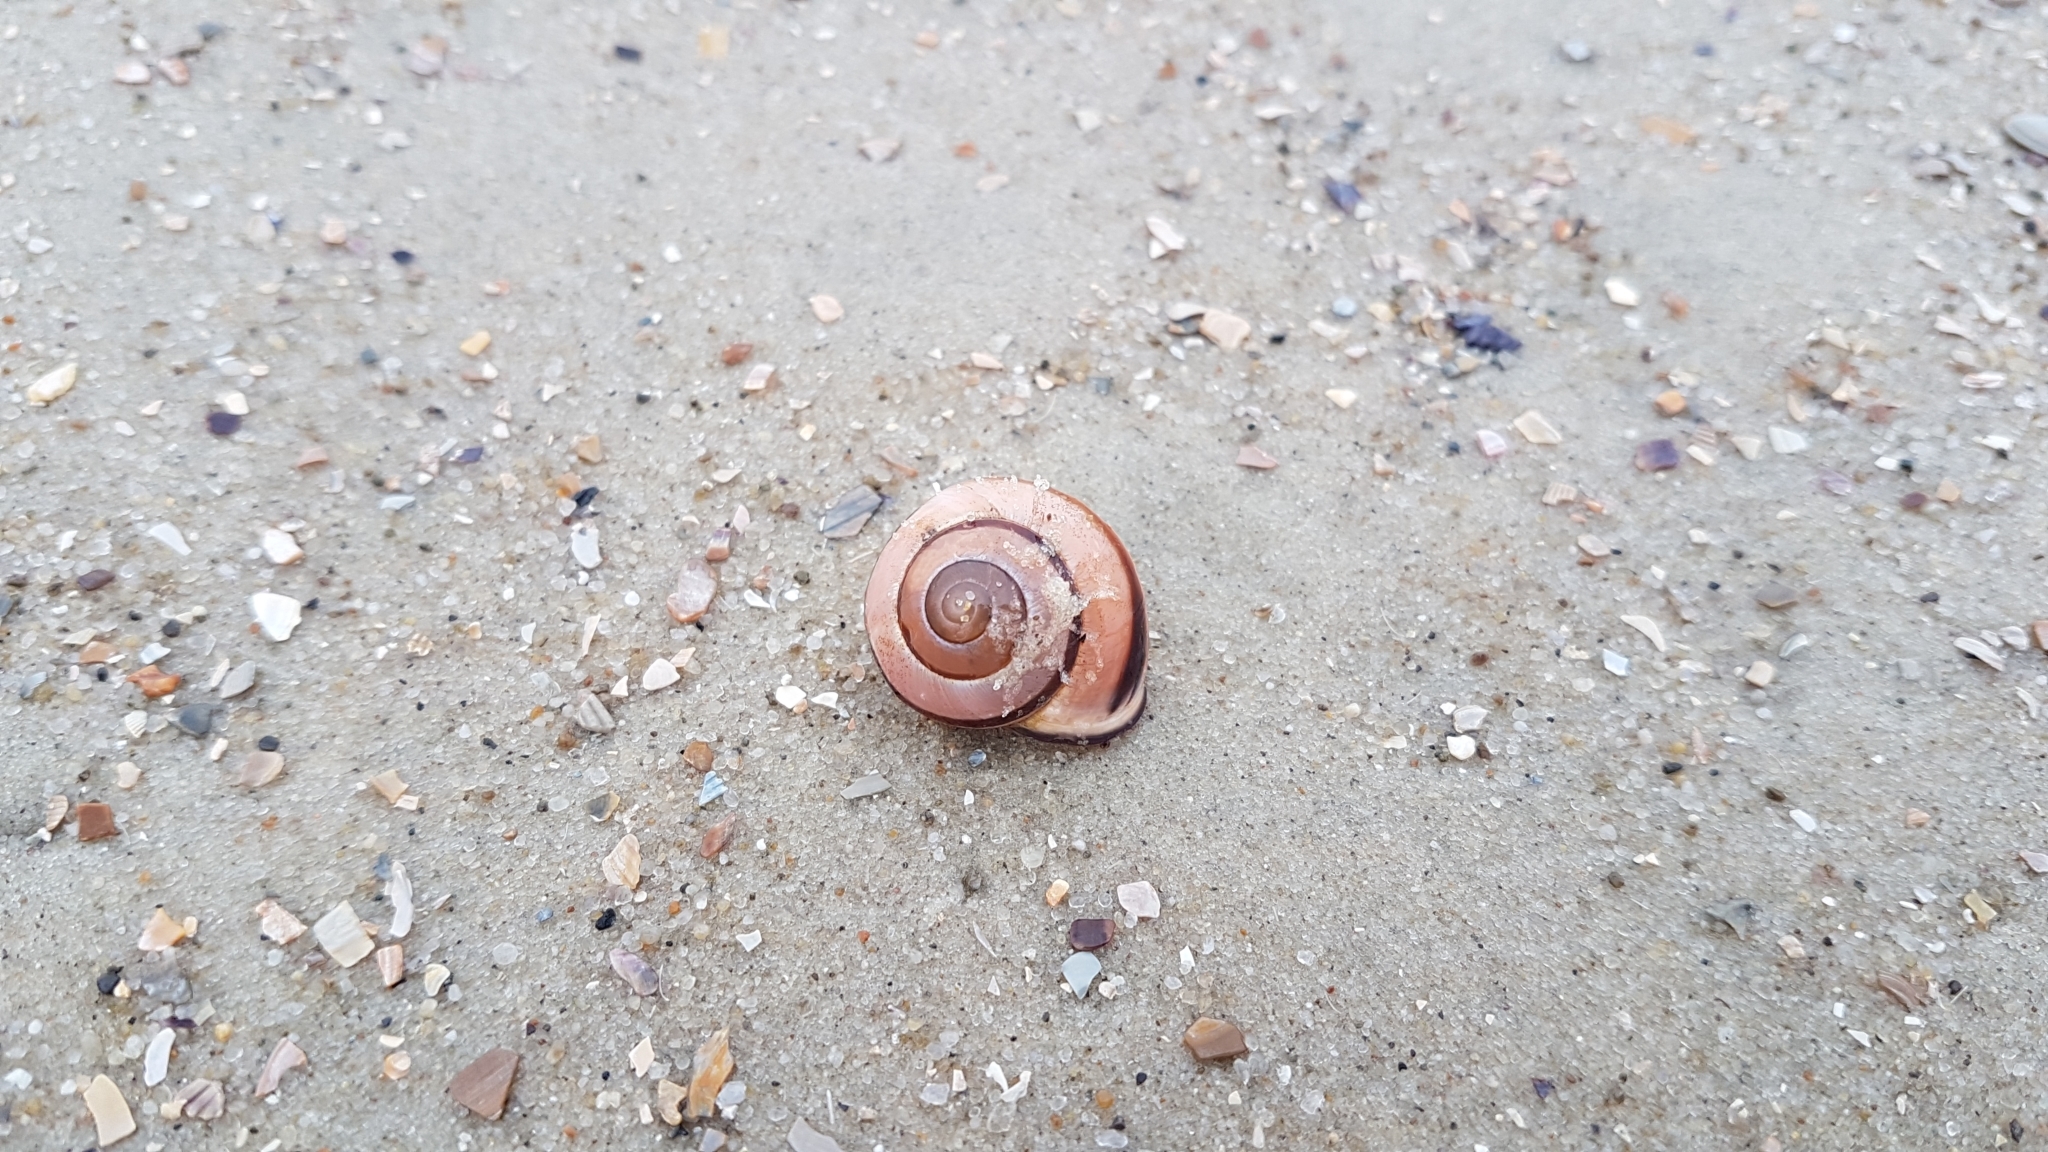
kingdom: Animalia
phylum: Mollusca
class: Gastropoda
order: Stylommatophora
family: Helicidae
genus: Cepaea
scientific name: Cepaea nemoralis
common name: Grovesnail
